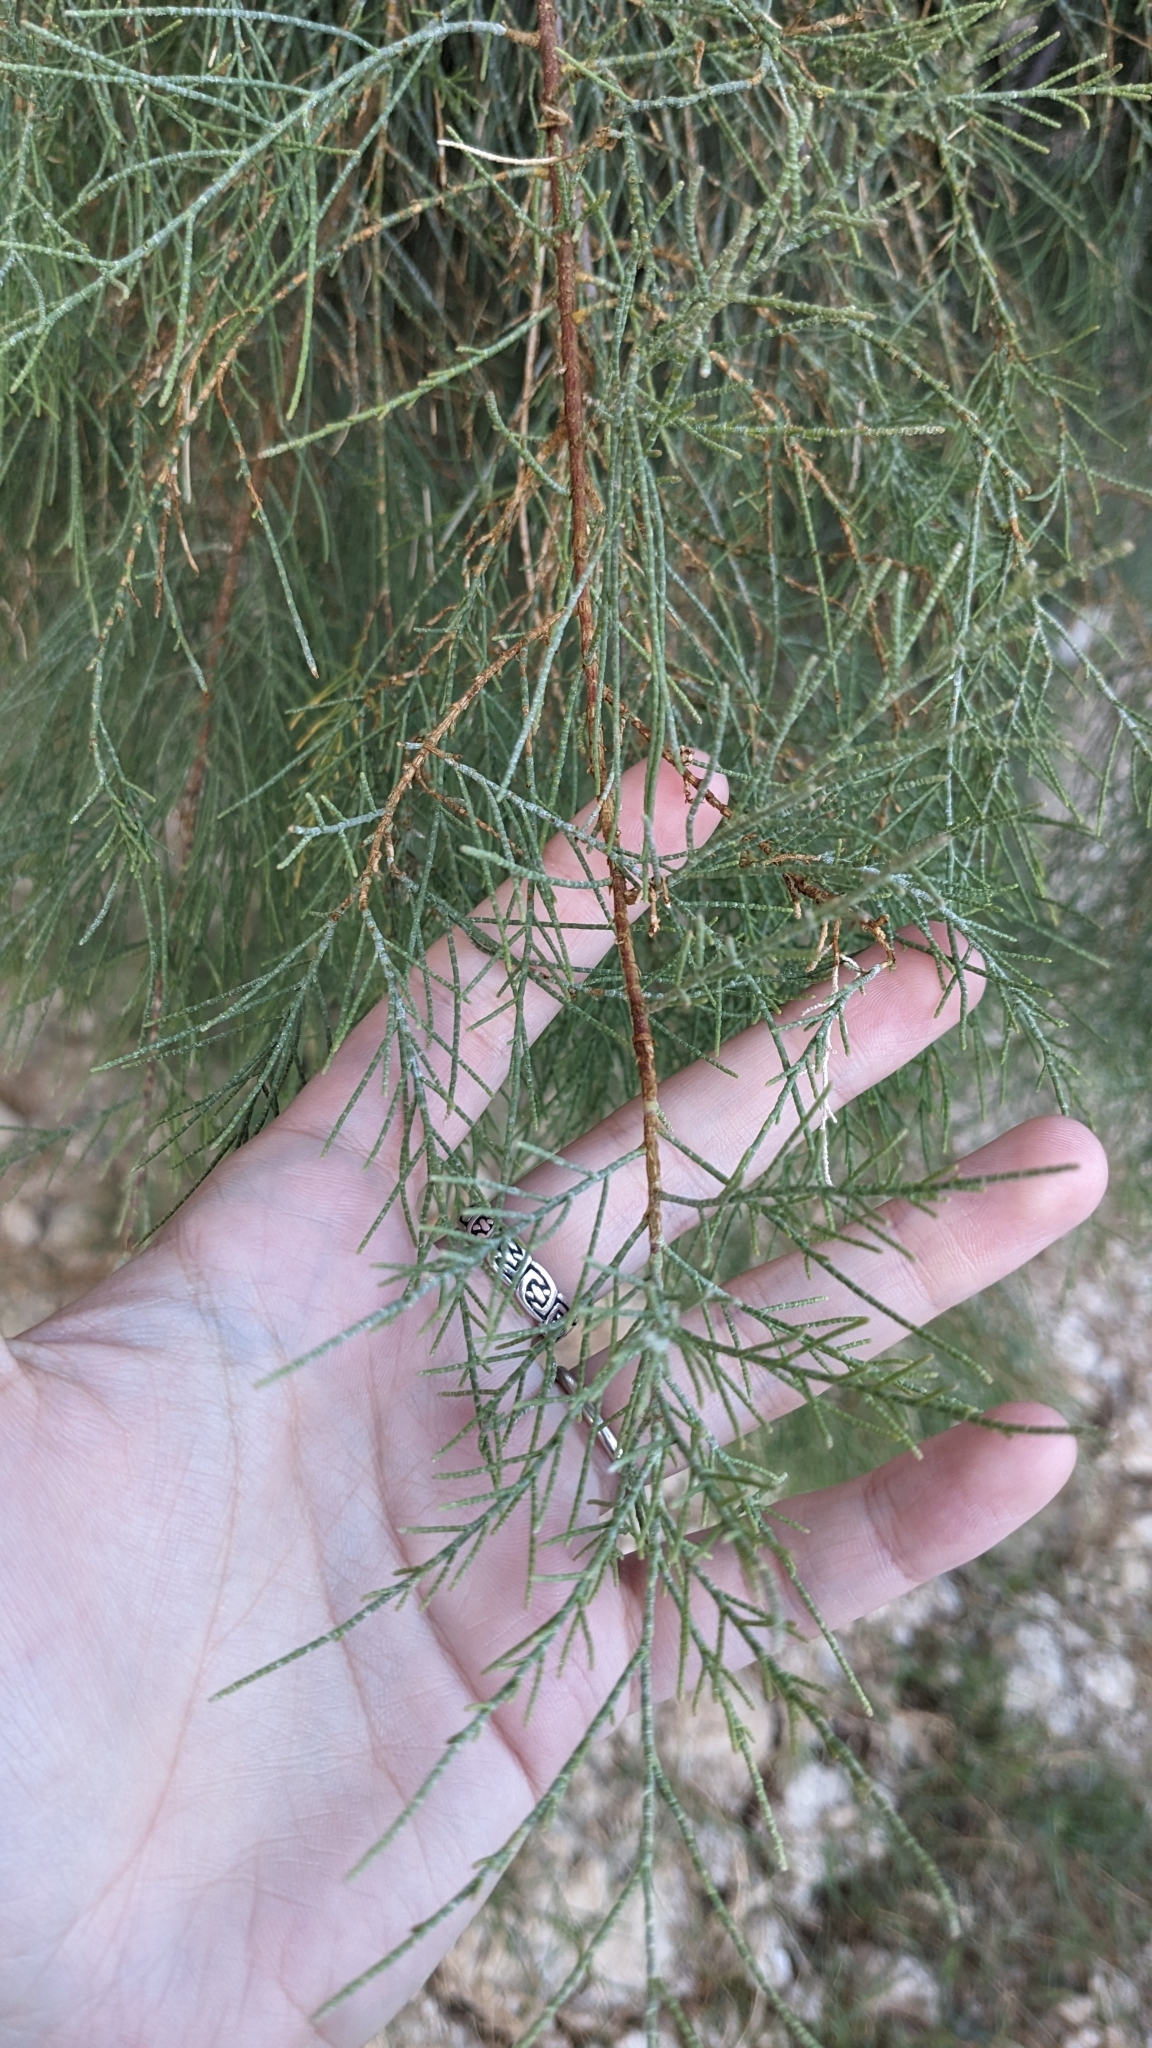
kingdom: Plantae
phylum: Tracheophyta
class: Magnoliopsida
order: Caryophyllales
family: Tamaricaceae
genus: Tamarix
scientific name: Tamarix aphylla
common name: Athel tamarisk
